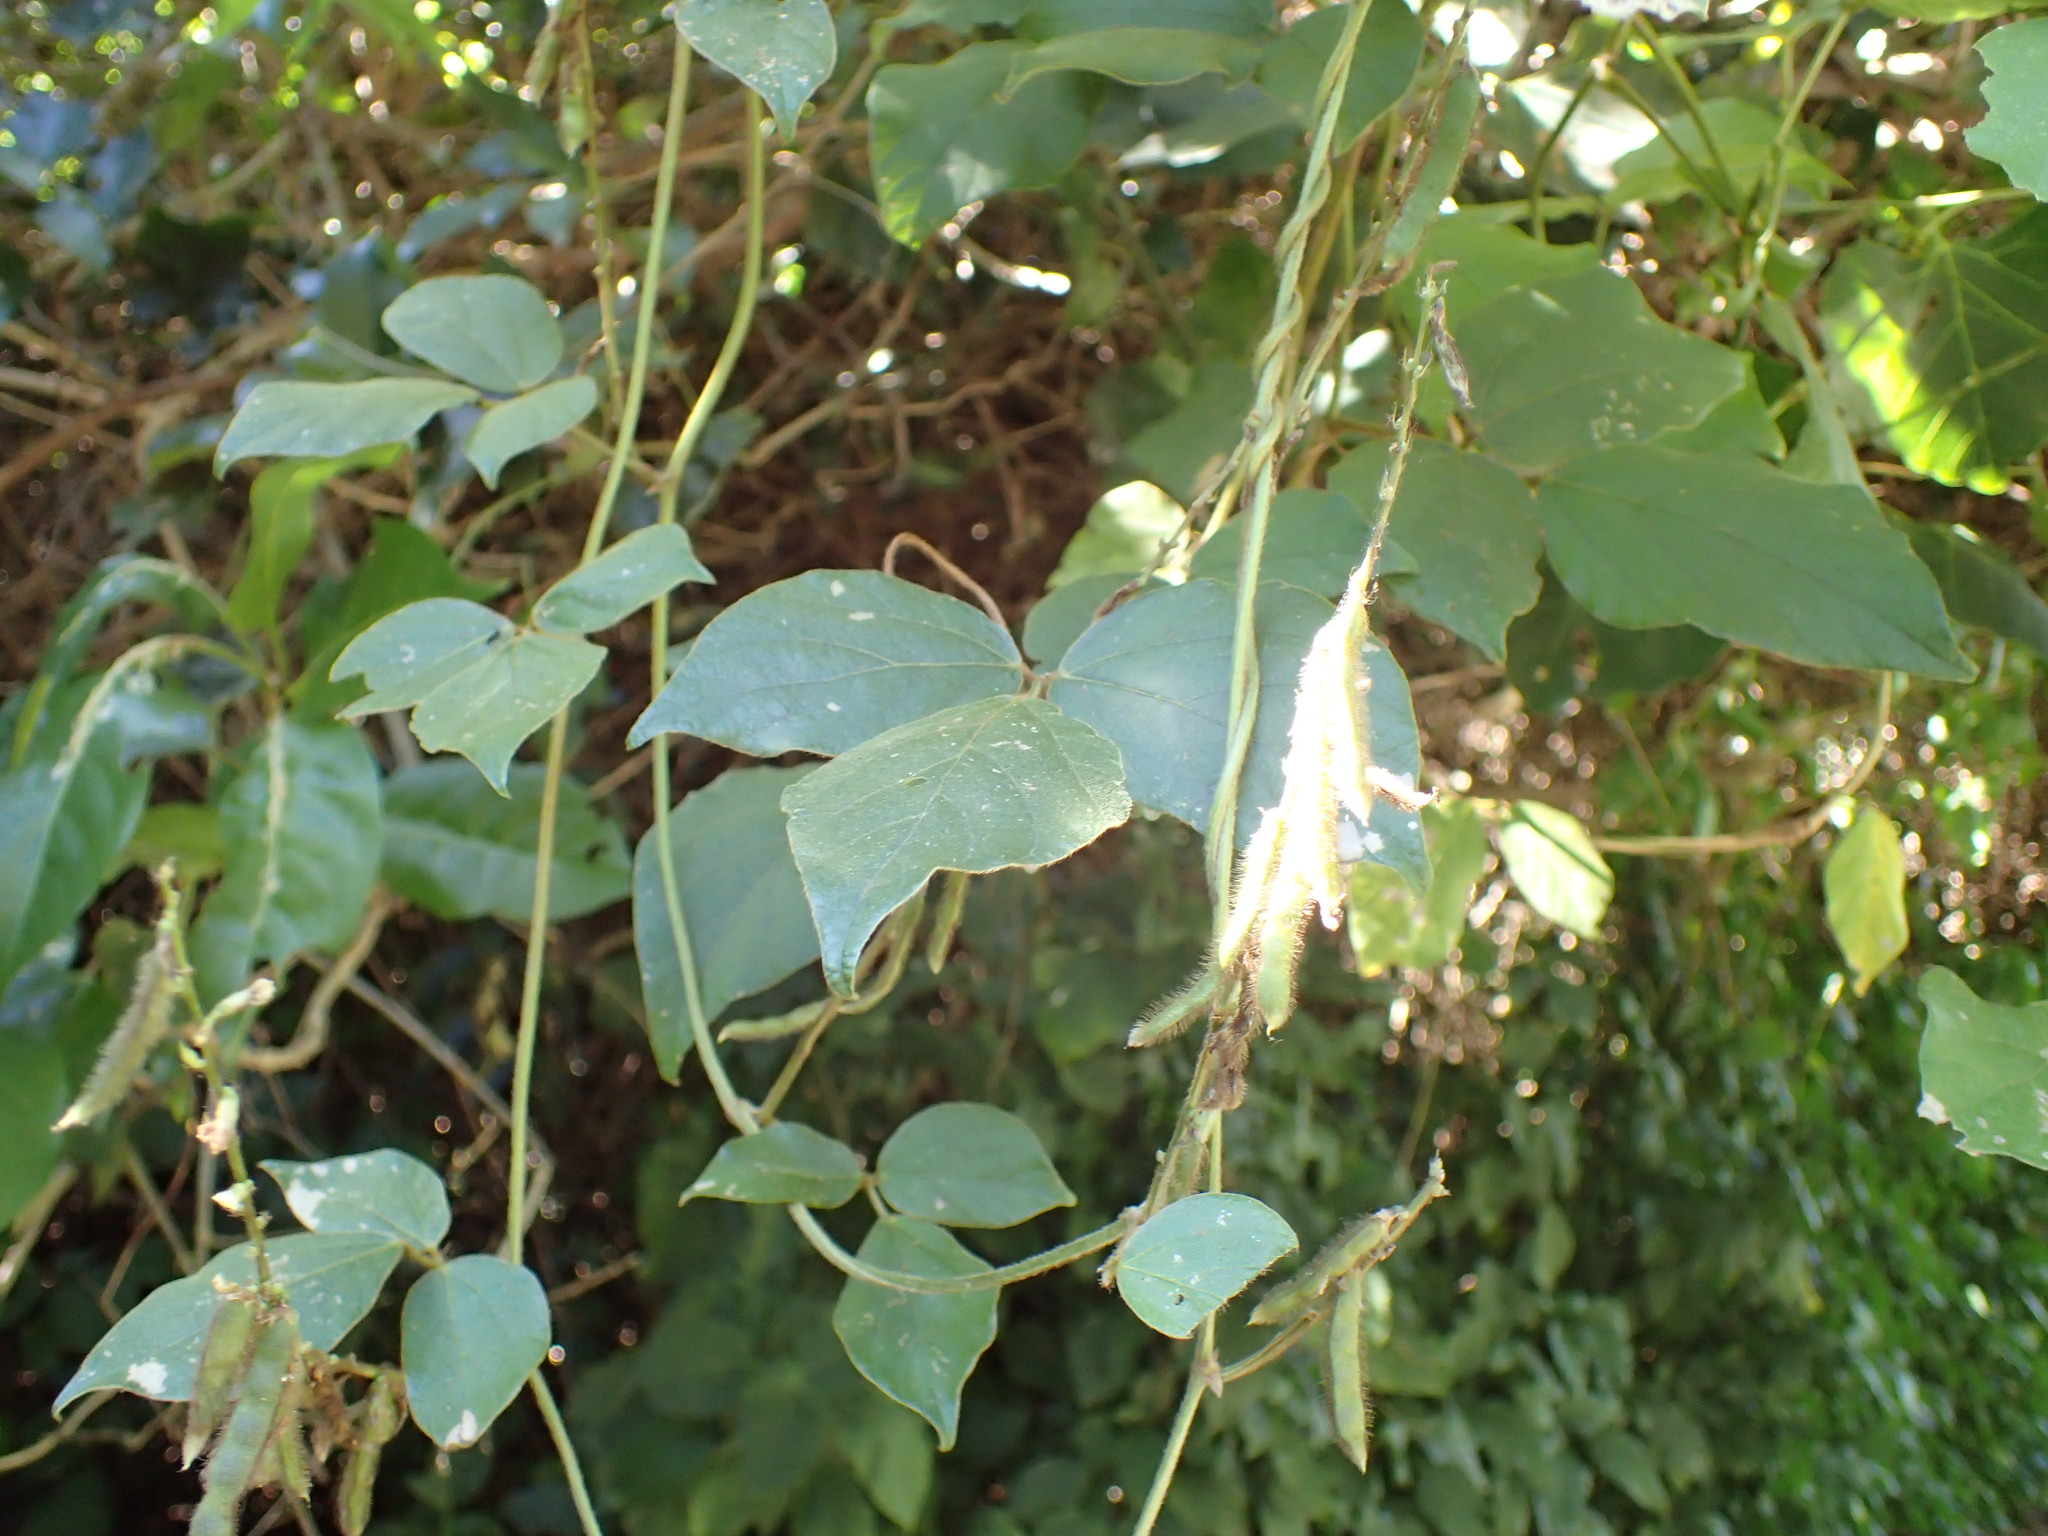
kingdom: Plantae
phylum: Tracheophyta
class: Magnoliopsida
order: Fabales
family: Fabaceae
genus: Neonotonia
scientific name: Neonotonia wightii
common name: Perennial soybean
